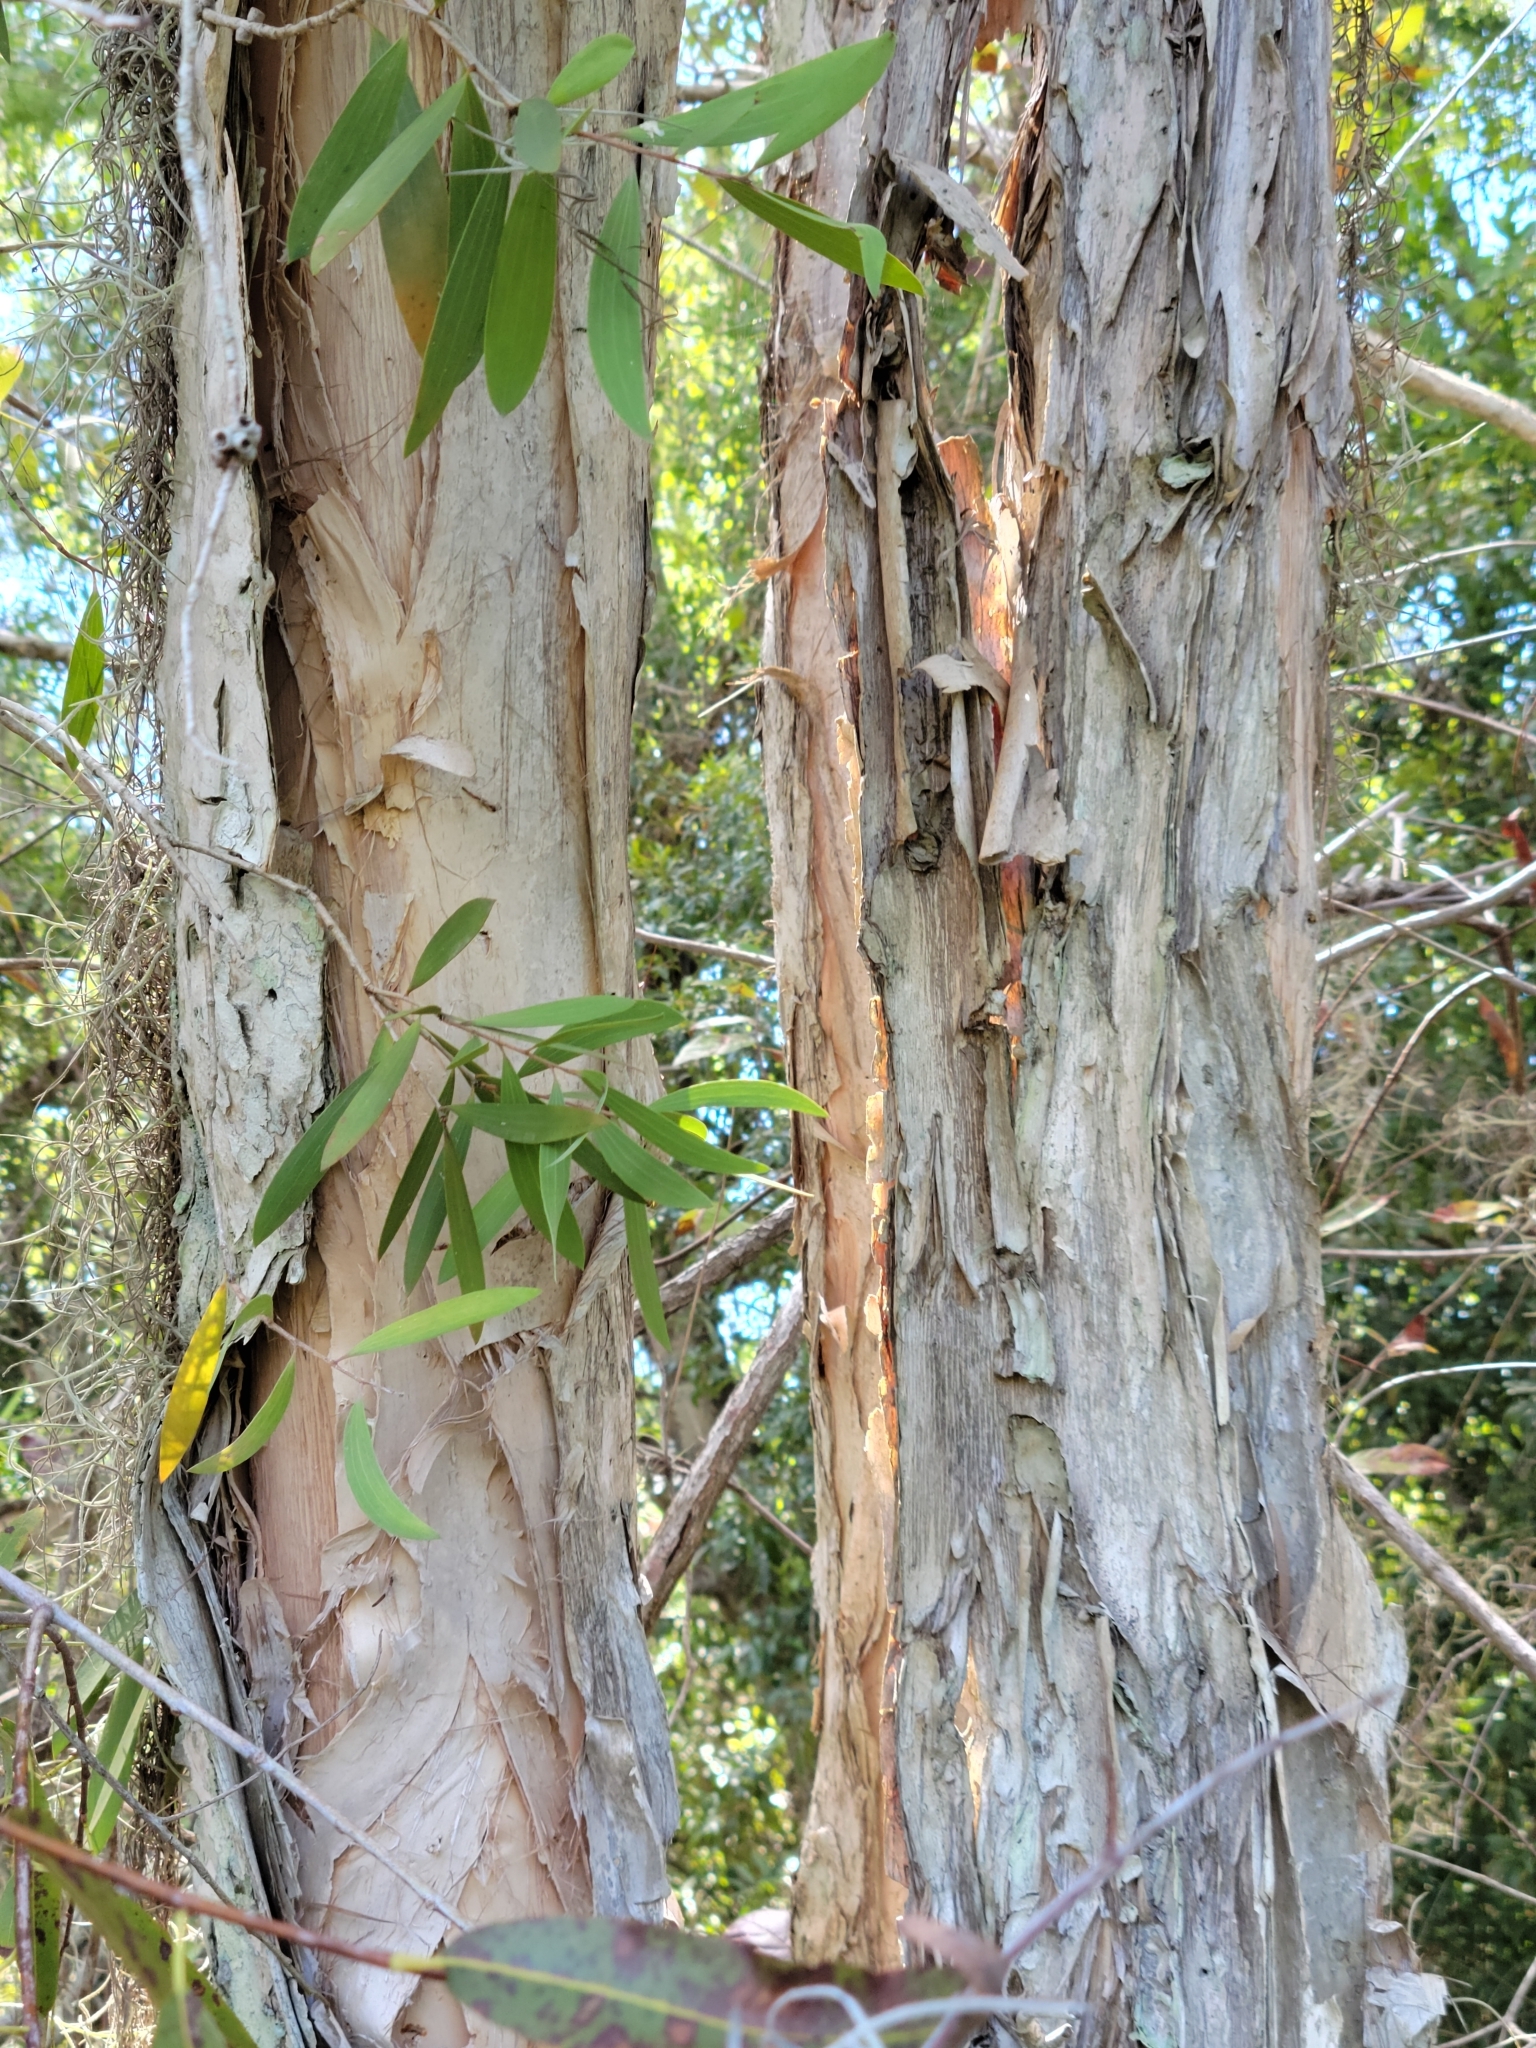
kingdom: Plantae
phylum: Tracheophyta
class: Magnoliopsida
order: Myrtales
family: Myrtaceae
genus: Melaleuca
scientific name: Melaleuca quinquenervia
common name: Punktree
